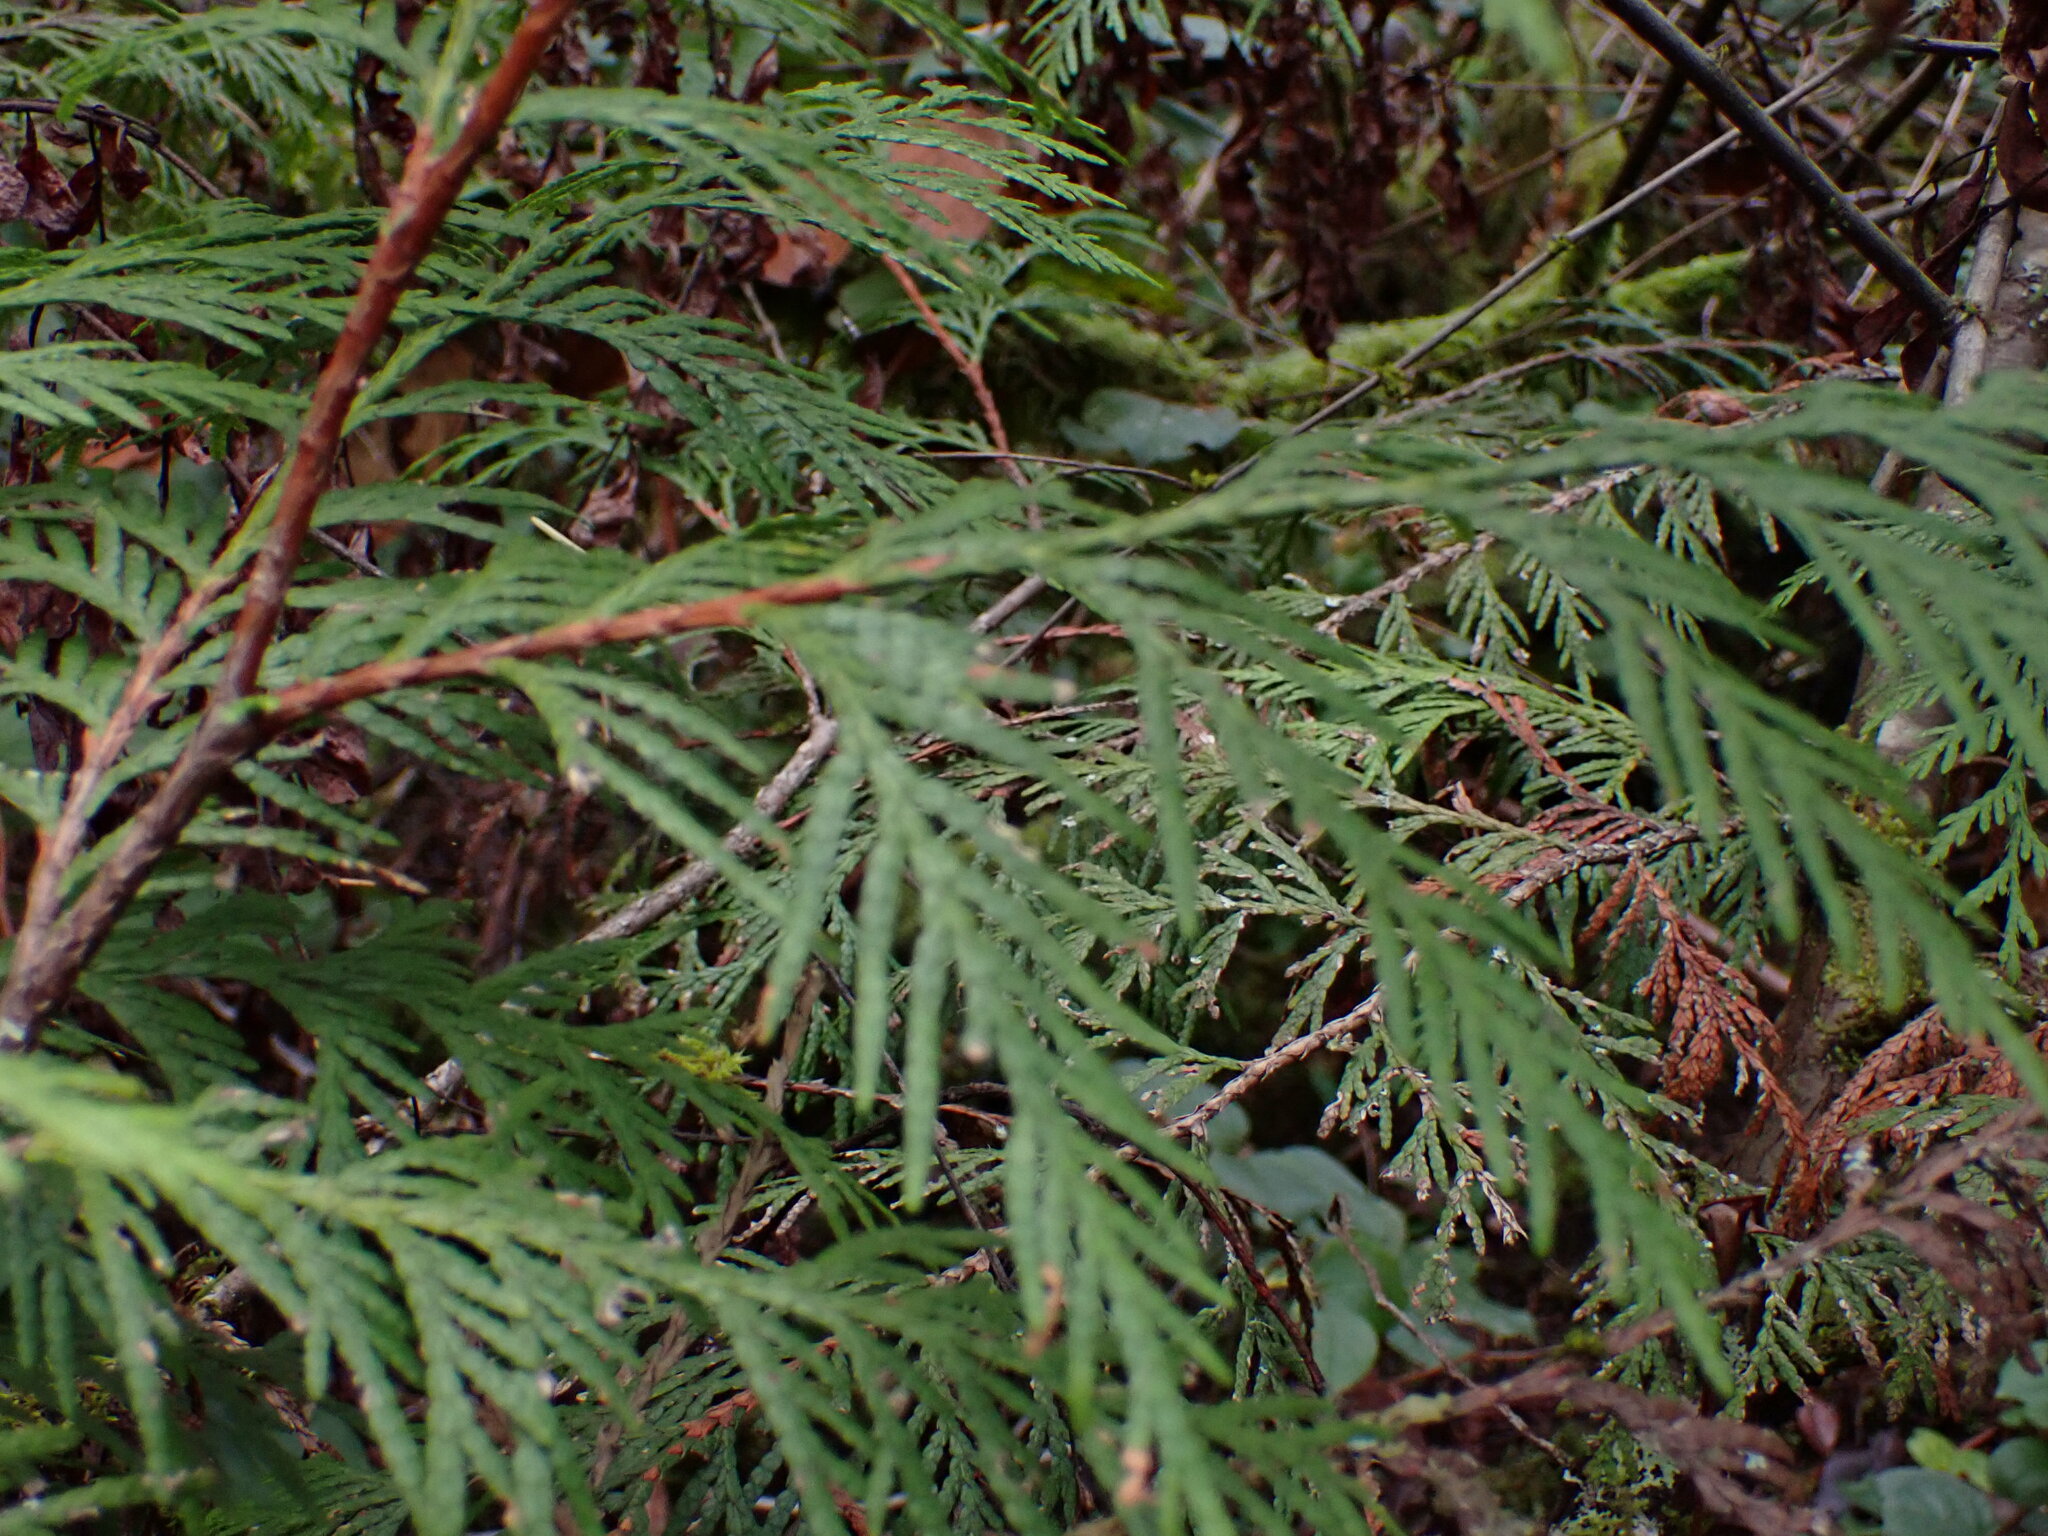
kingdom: Plantae
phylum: Tracheophyta
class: Pinopsida
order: Pinales
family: Cupressaceae
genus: Thuja
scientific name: Thuja plicata
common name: Western red-cedar
